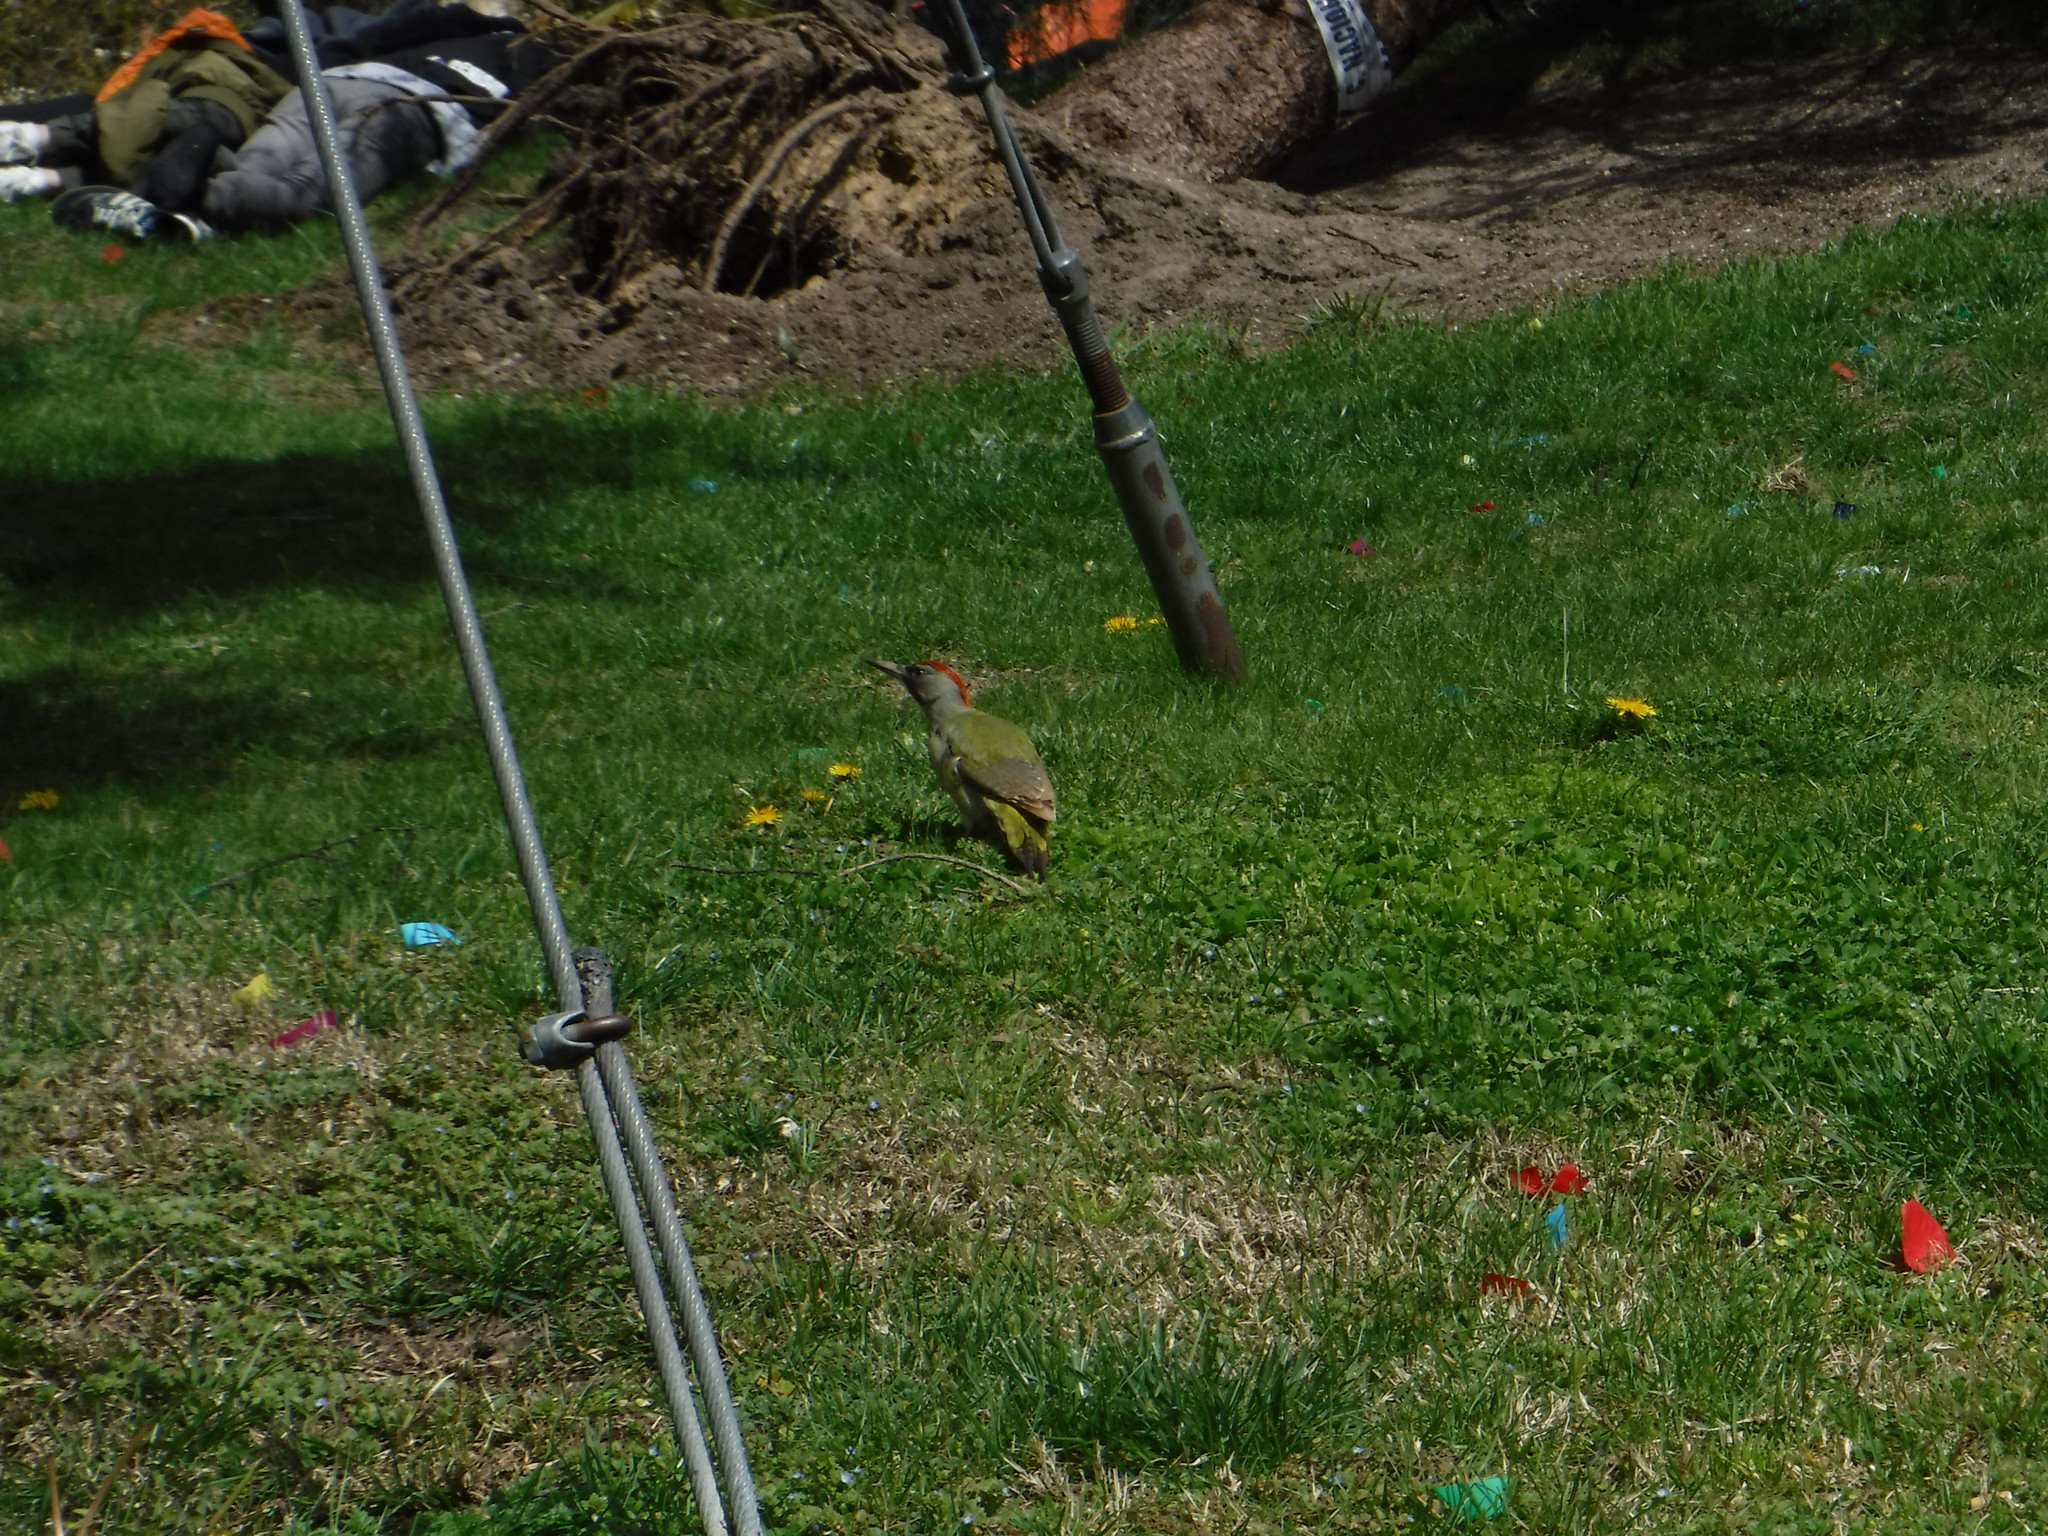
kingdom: Animalia
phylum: Chordata
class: Aves
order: Piciformes
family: Picidae
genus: Picus
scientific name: Picus sharpei
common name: Iberian green woodpecker
